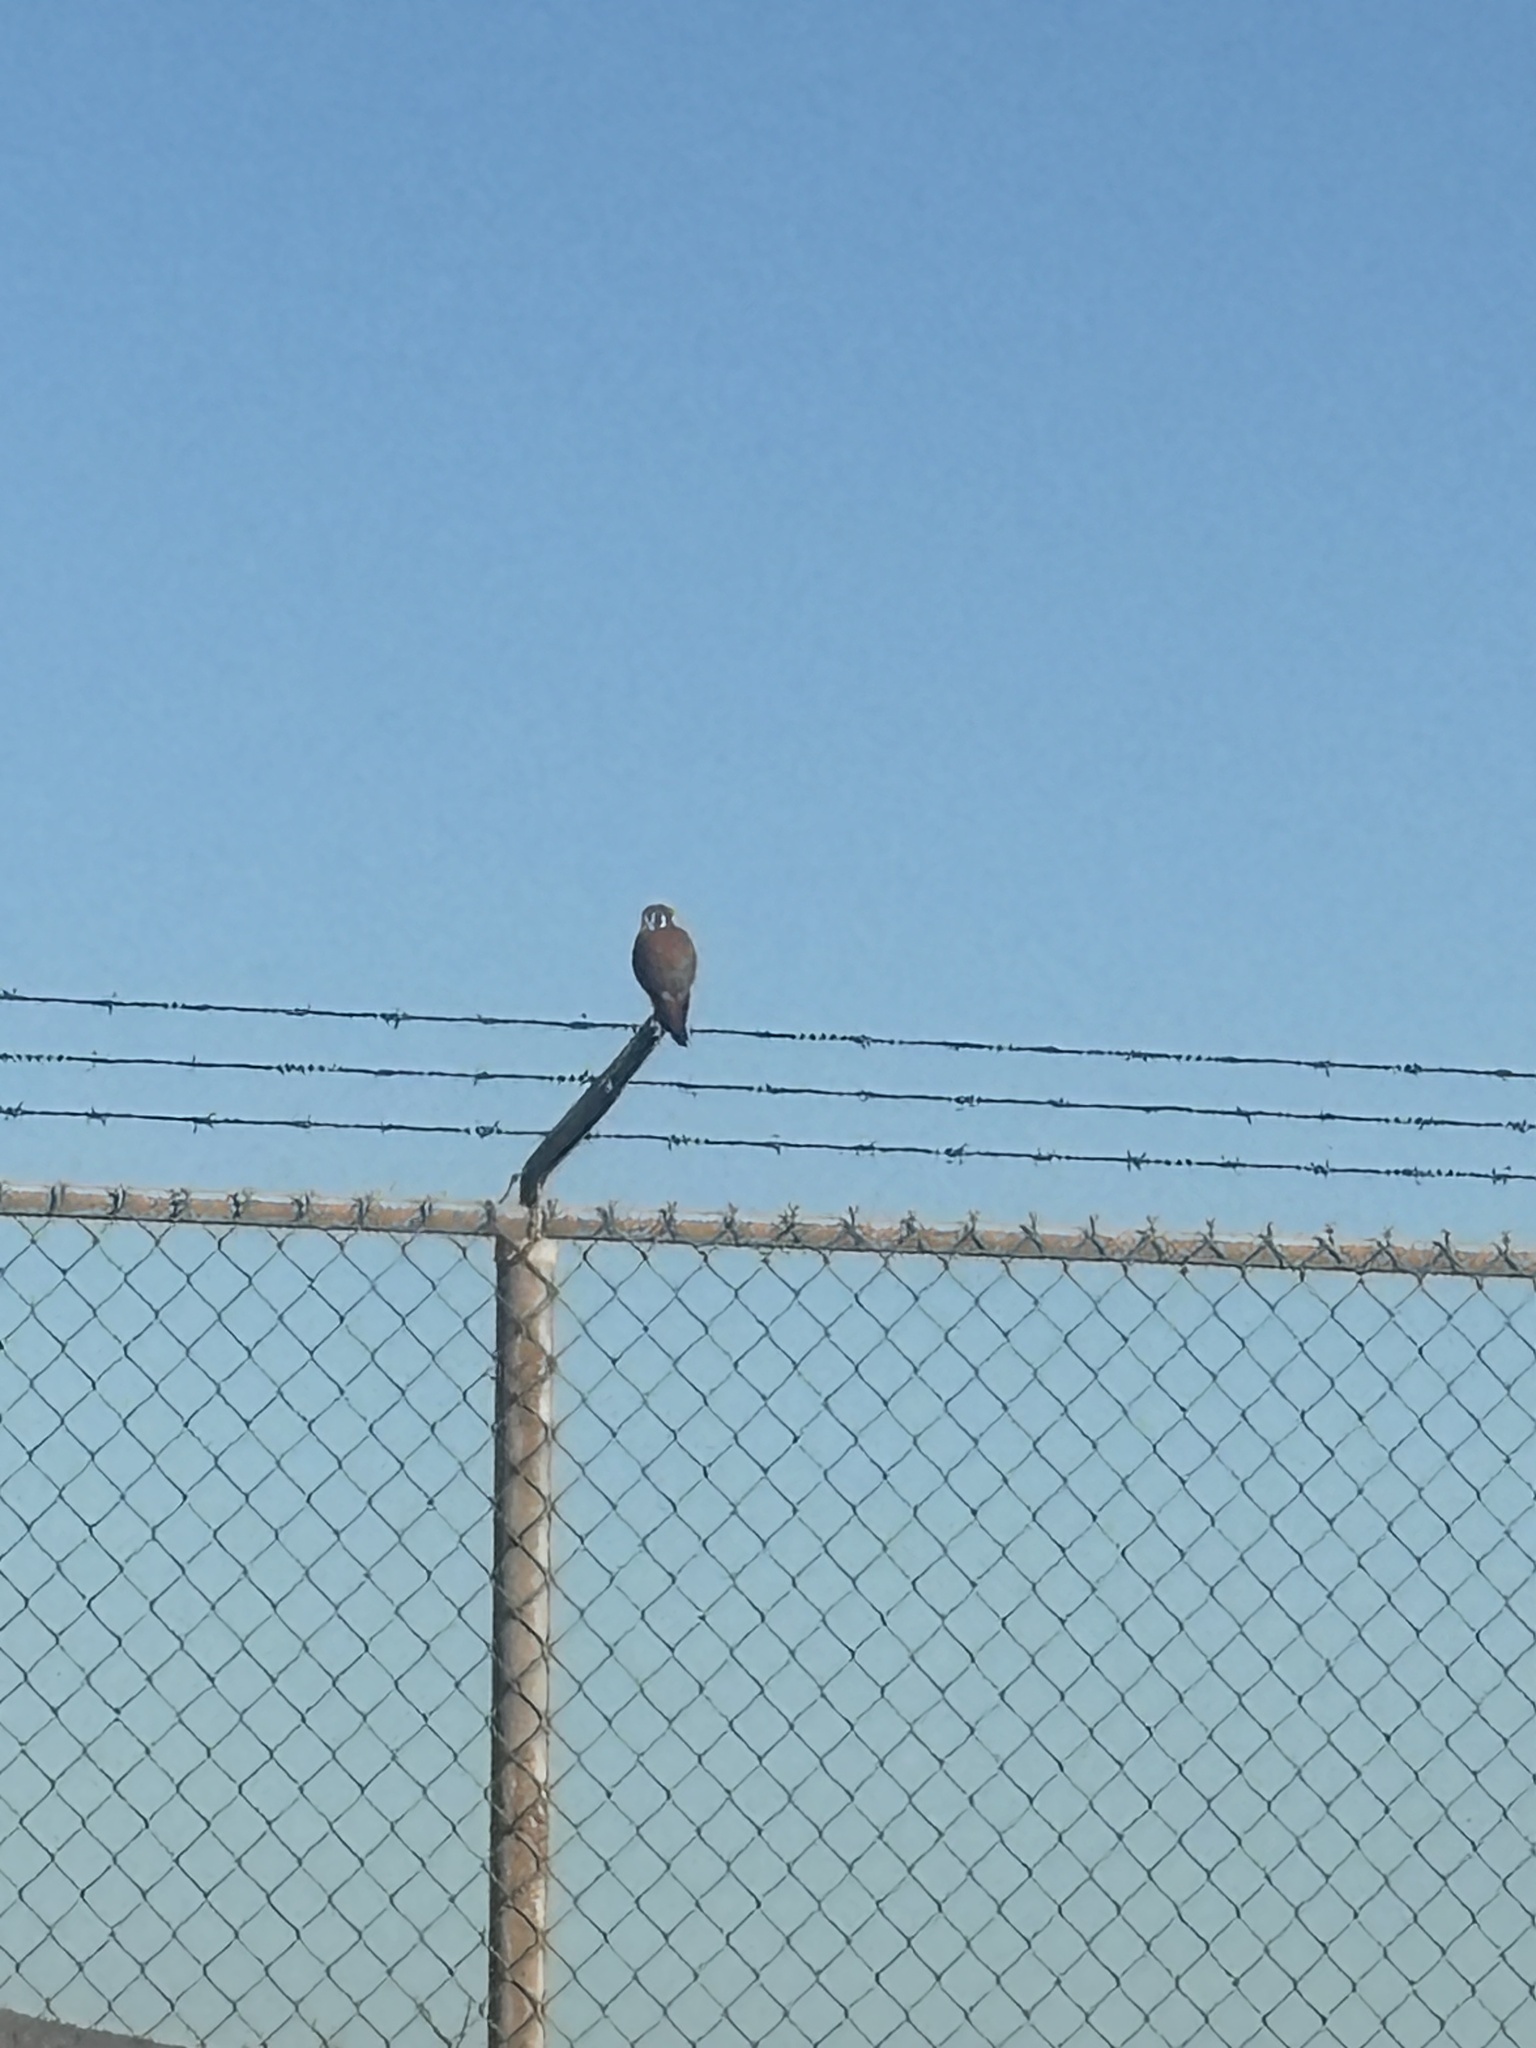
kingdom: Animalia
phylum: Chordata
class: Aves
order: Falconiformes
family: Falconidae
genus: Falco
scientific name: Falco sparverius
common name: American kestrel
